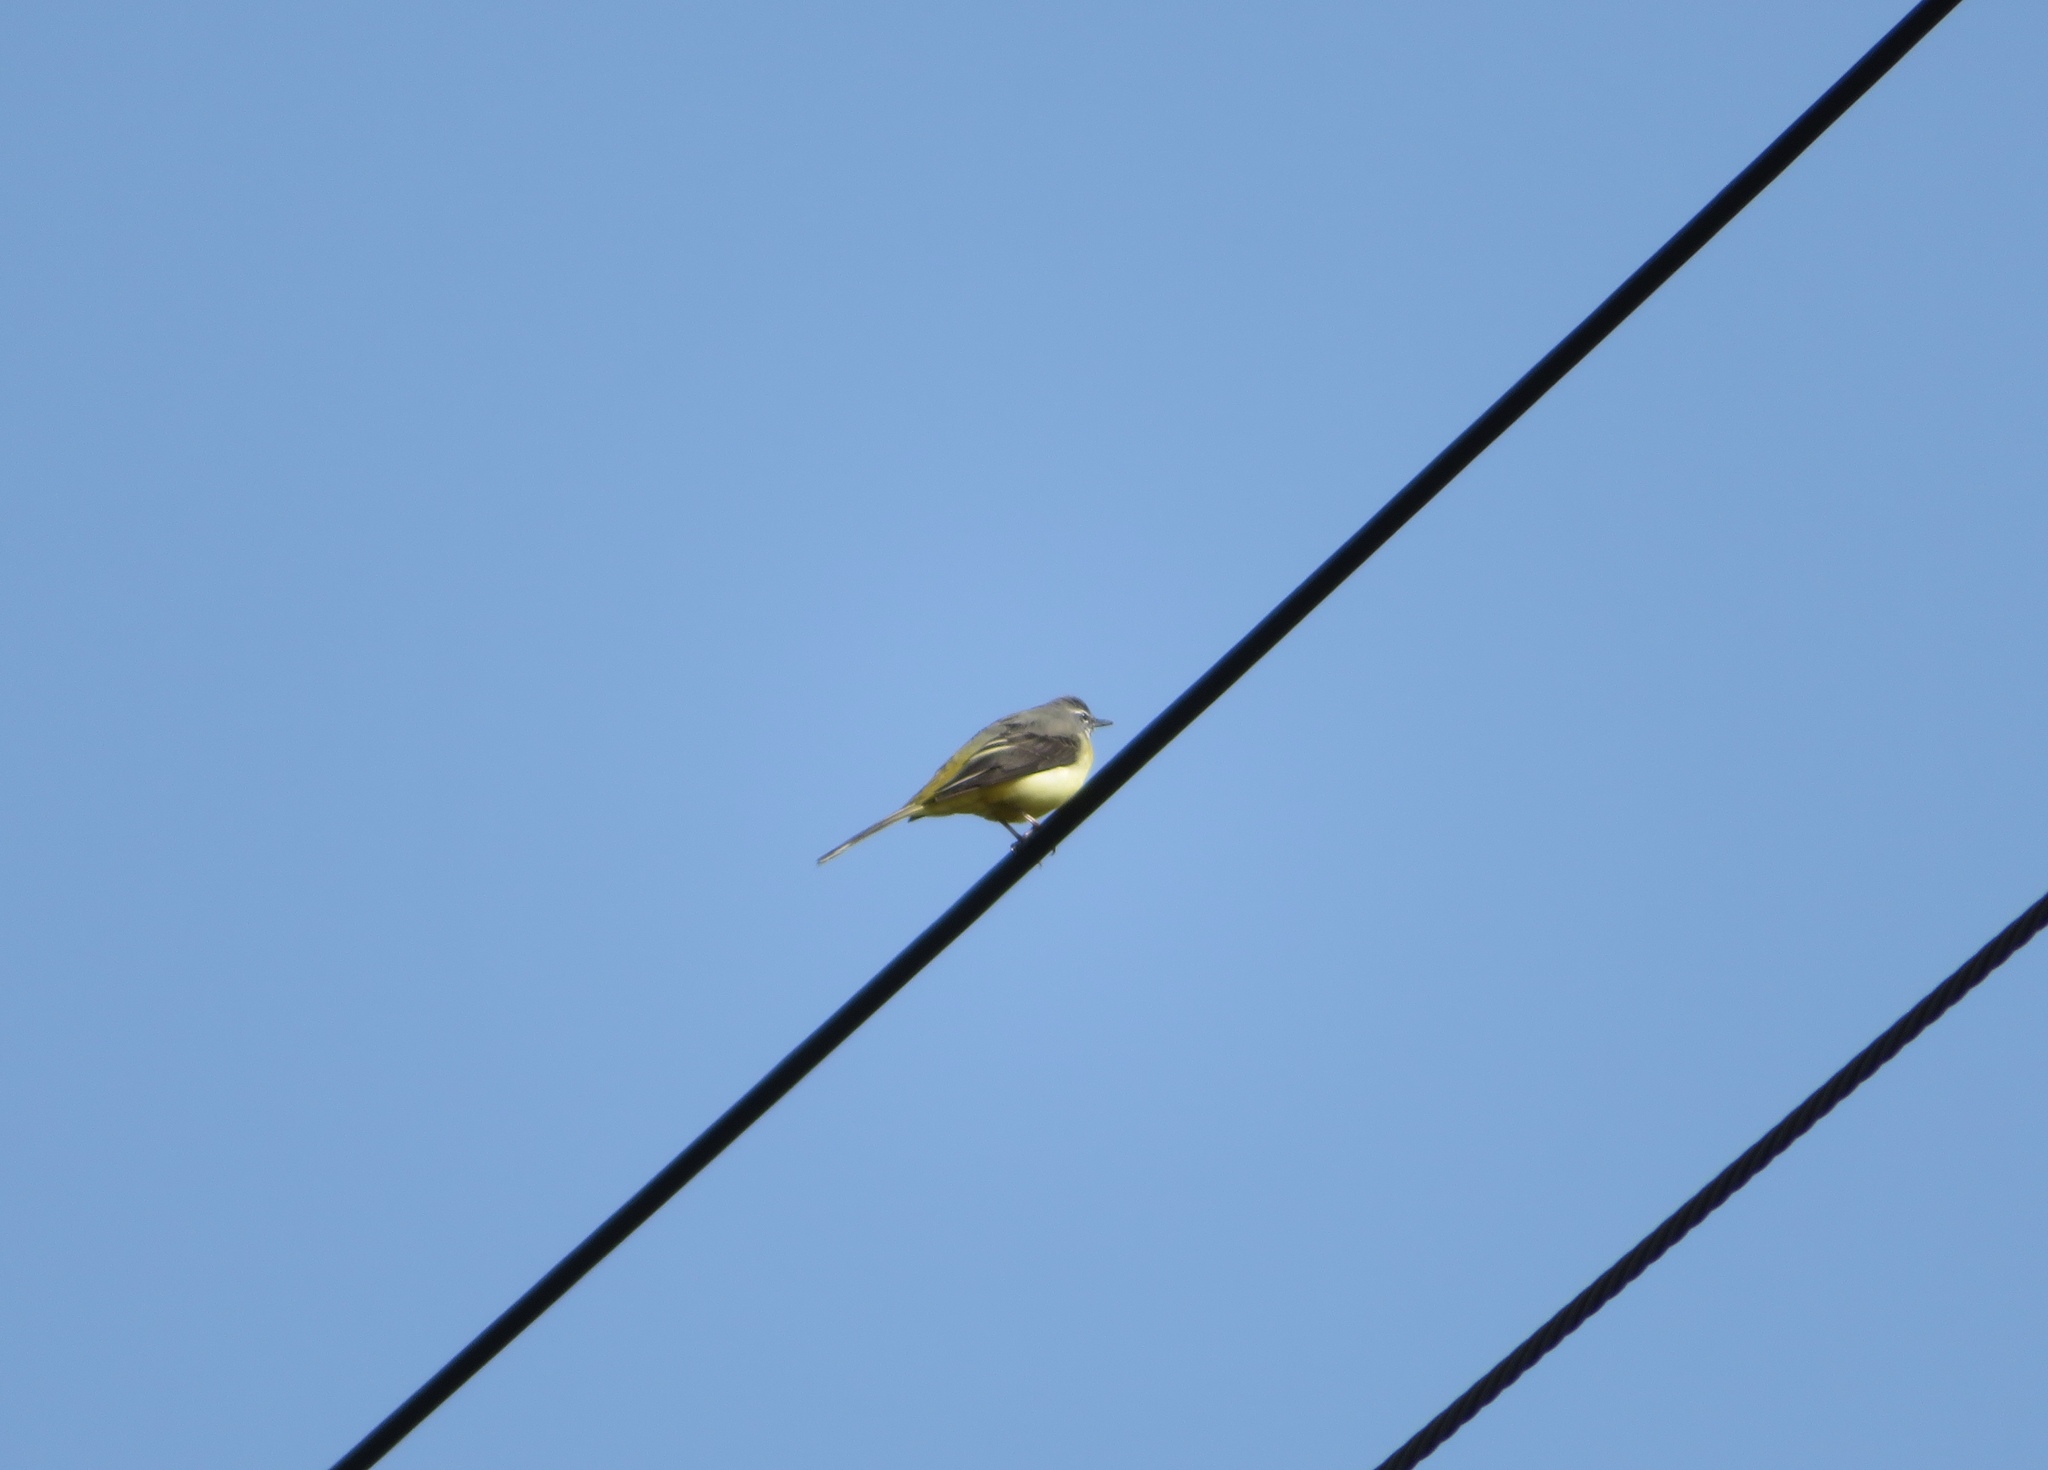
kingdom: Animalia
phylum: Chordata
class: Aves
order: Passeriformes
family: Motacillidae
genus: Motacilla
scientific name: Motacilla cinerea
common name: Grey wagtail
